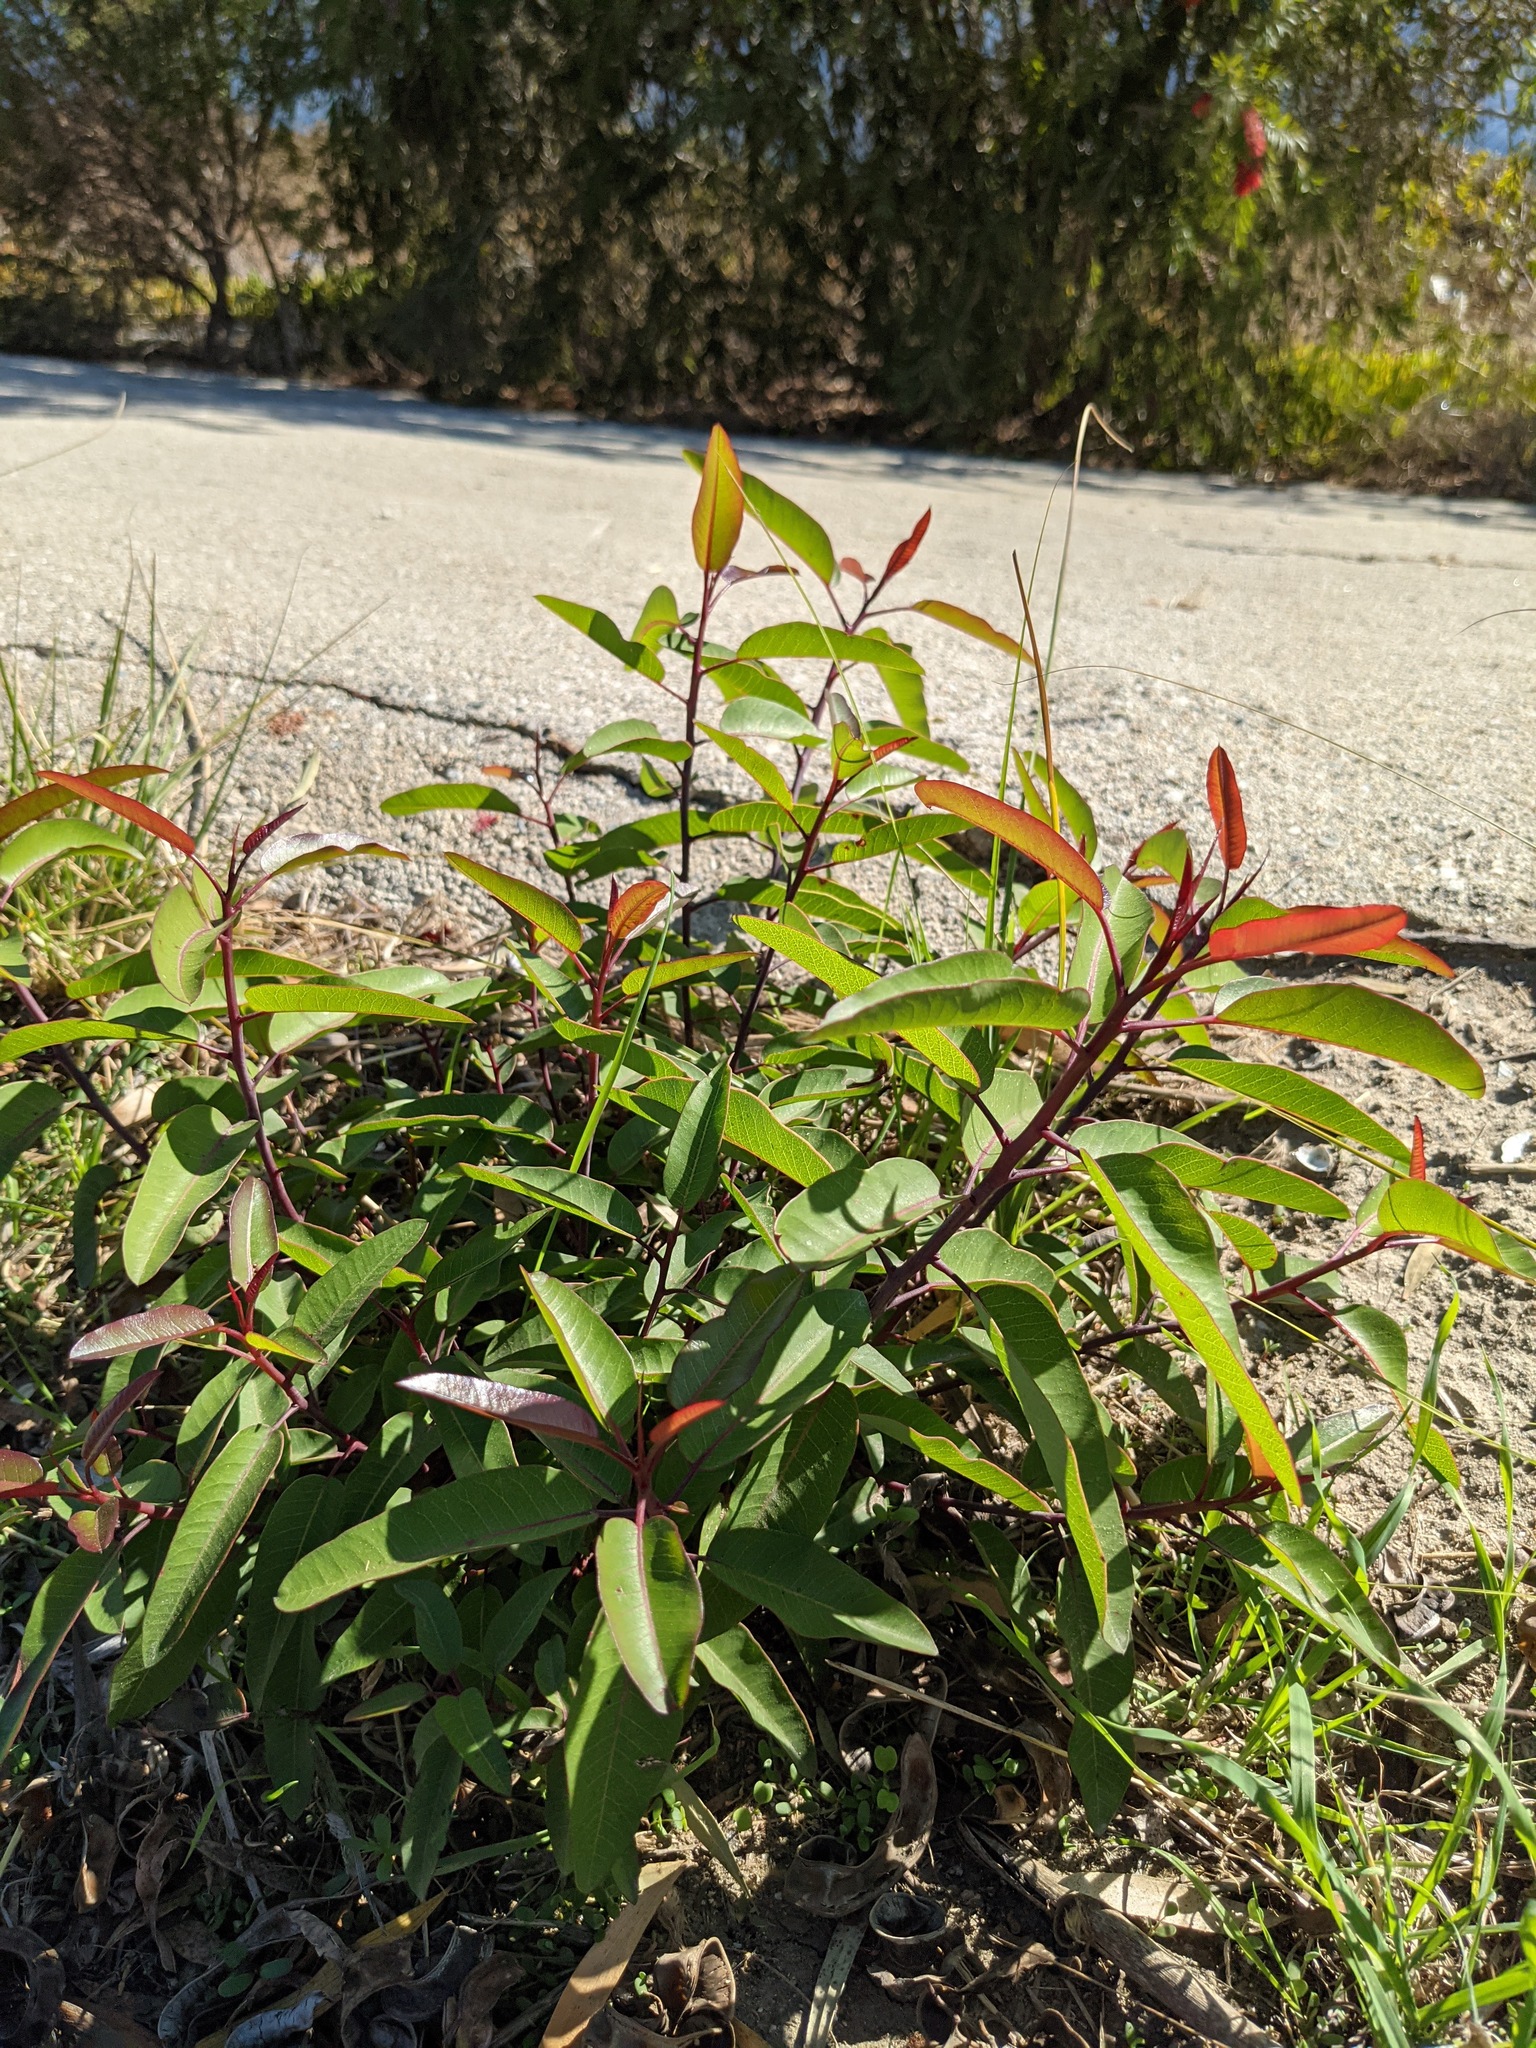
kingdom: Plantae
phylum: Tracheophyta
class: Magnoliopsida
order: Sapindales
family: Anacardiaceae
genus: Malosma
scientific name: Malosma laurina
